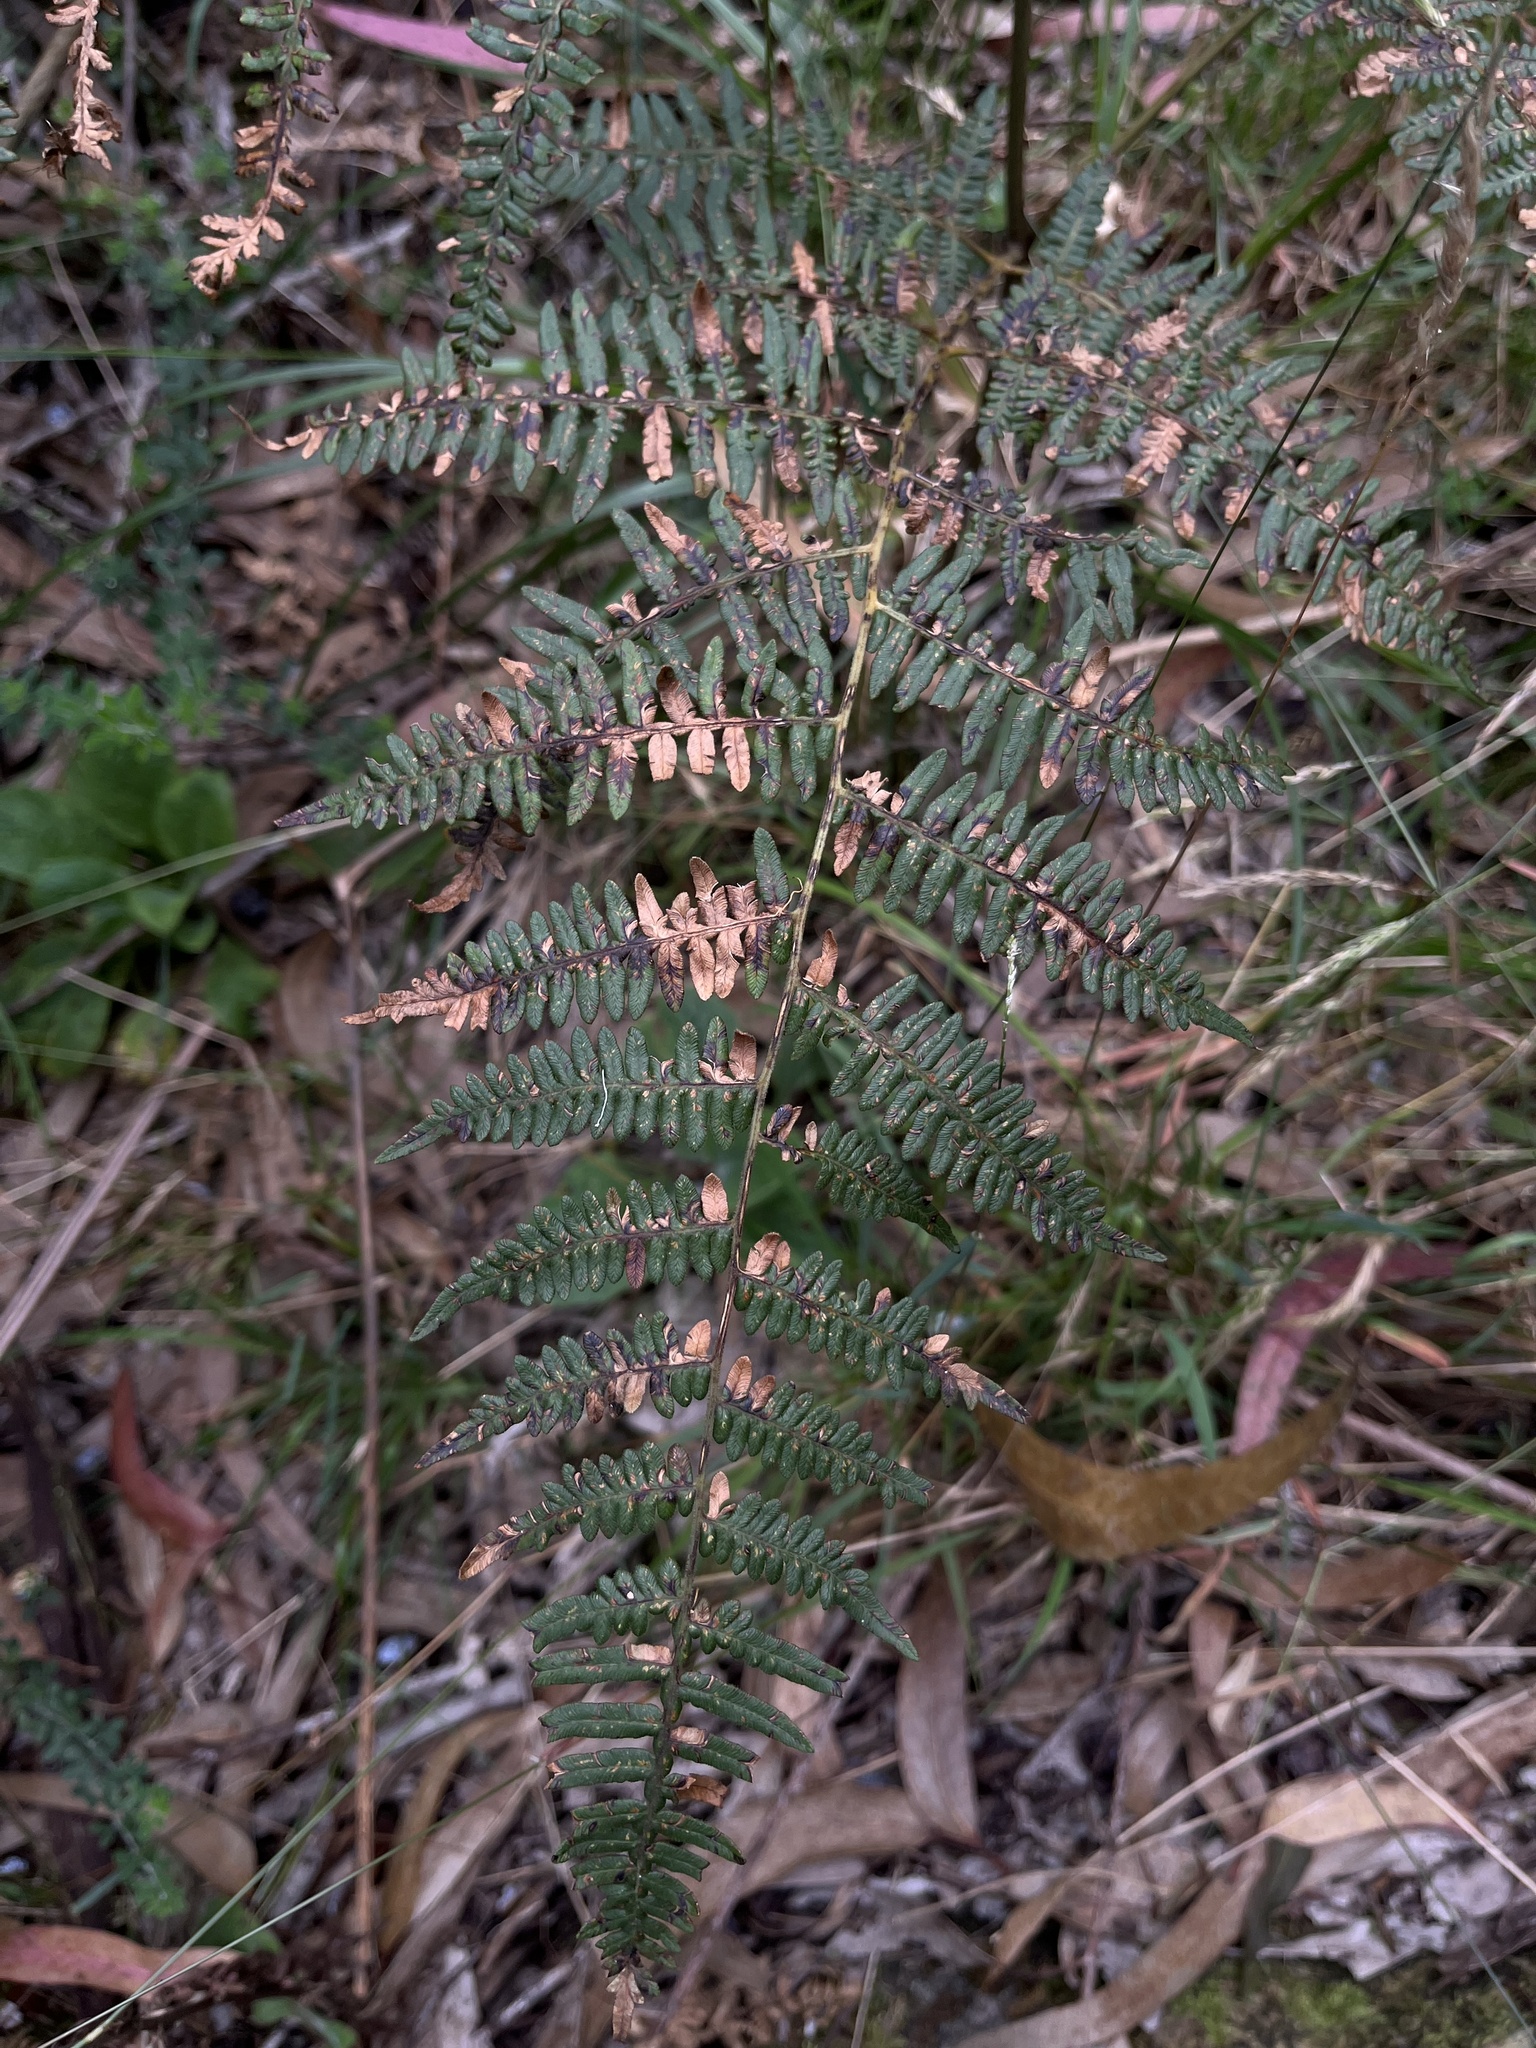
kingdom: Plantae
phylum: Tracheophyta
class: Polypodiopsida
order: Polypodiales
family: Dennstaedtiaceae
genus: Pteridium
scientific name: Pteridium esculentum
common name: Bracken fern
